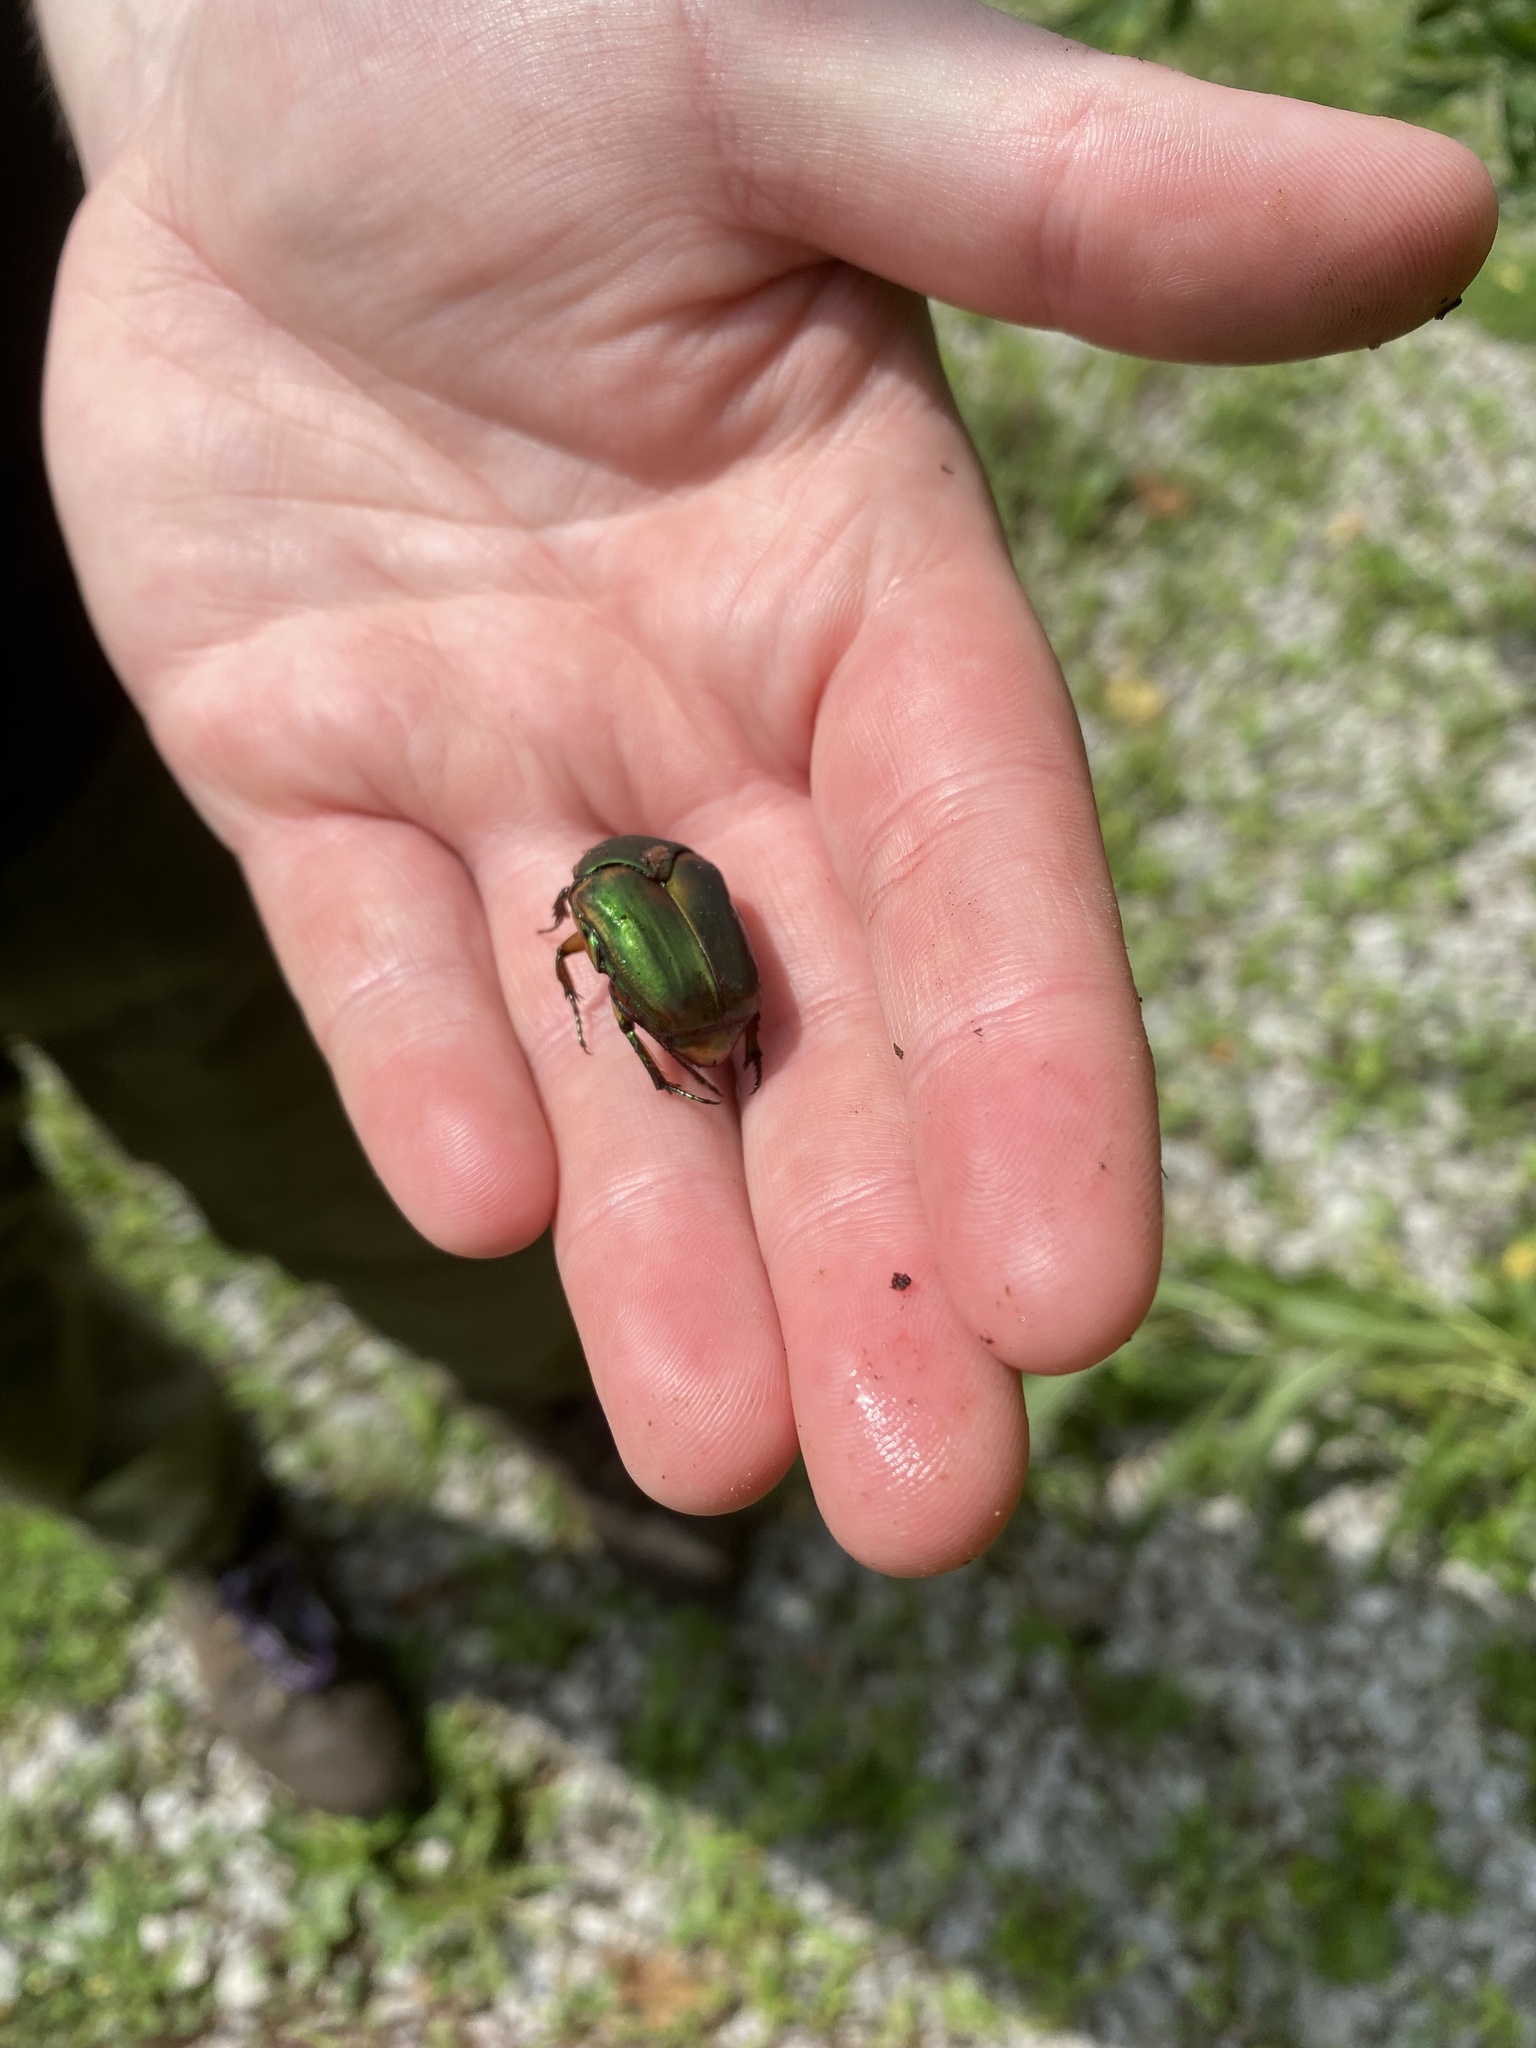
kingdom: Animalia
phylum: Arthropoda
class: Insecta
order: Coleoptera
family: Scarabaeidae
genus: Cotinis
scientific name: Cotinis nitida
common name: Common green june beetle
